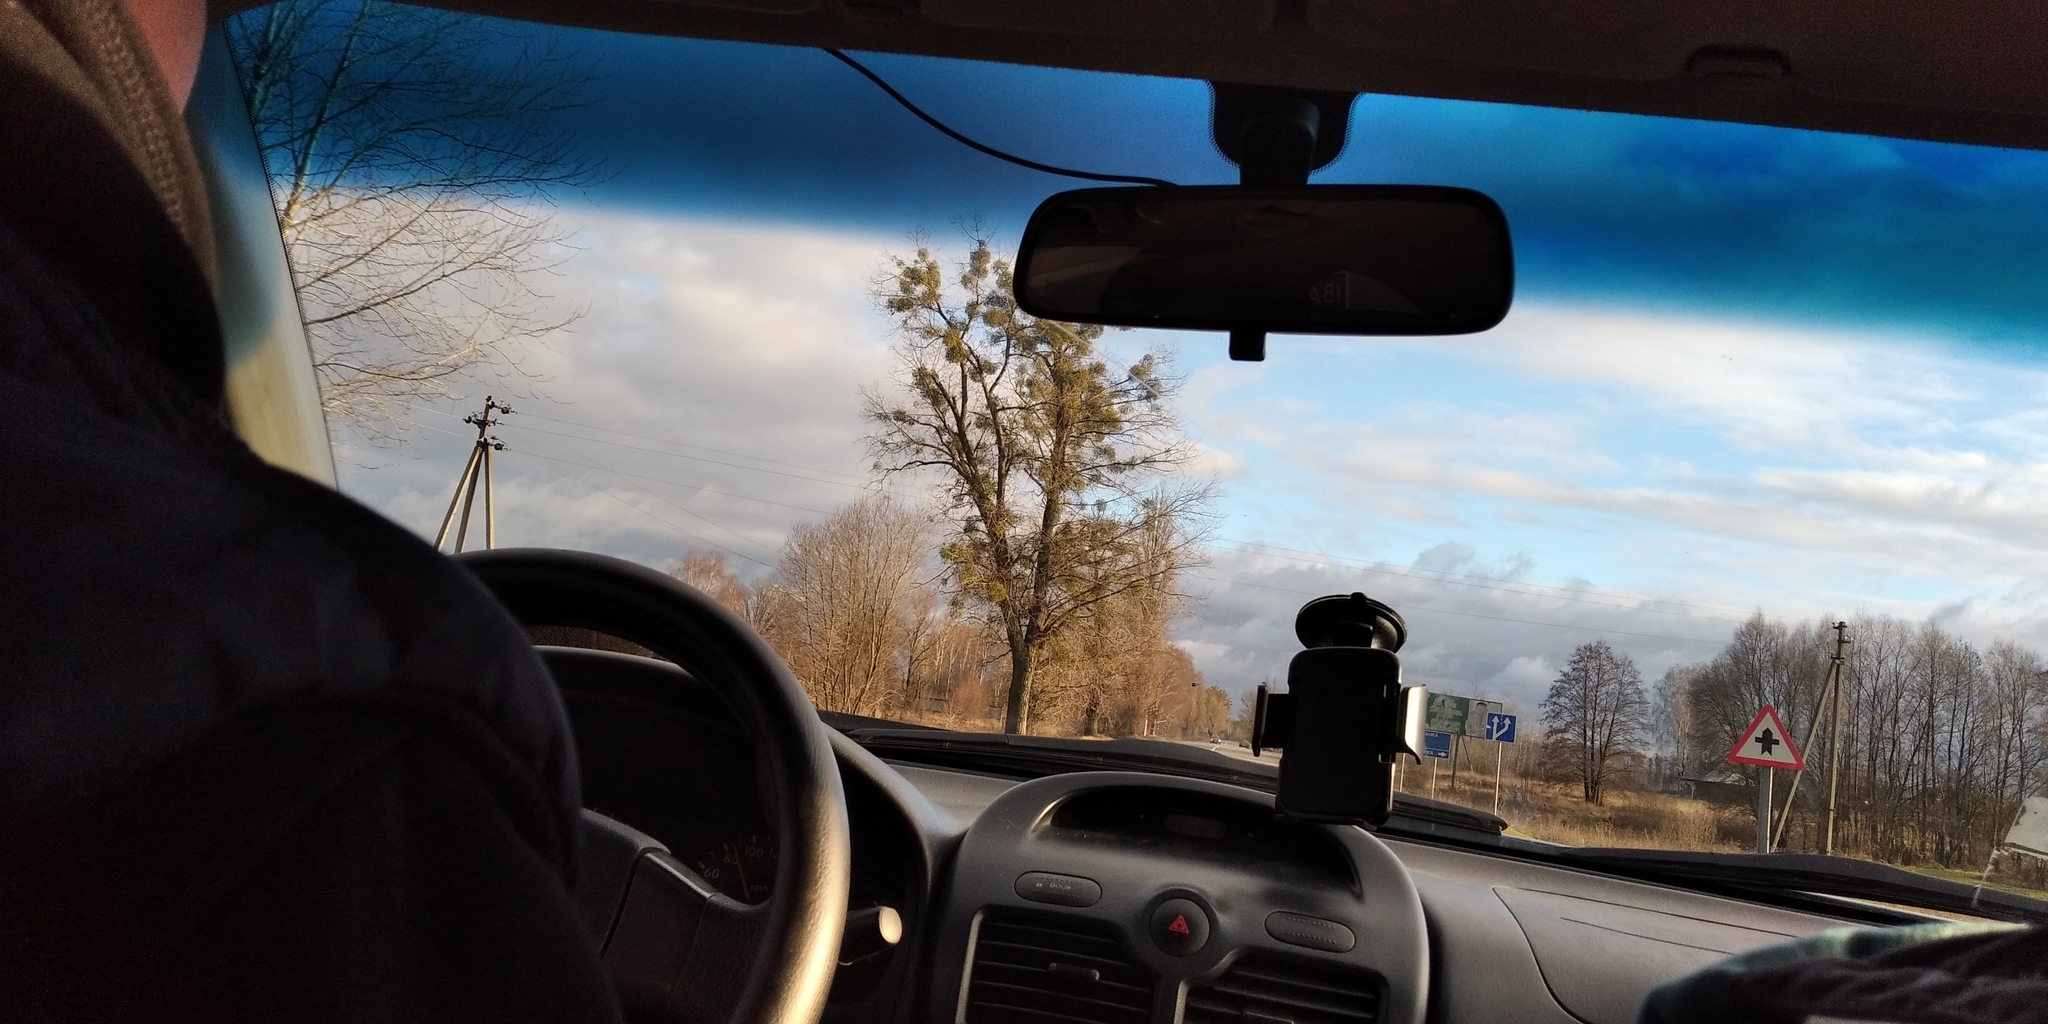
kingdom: Plantae
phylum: Tracheophyta
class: Magnoliopsida
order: Santalales
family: Viscaceae
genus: Viscum
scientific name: Viscum album
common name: Mistletoe
